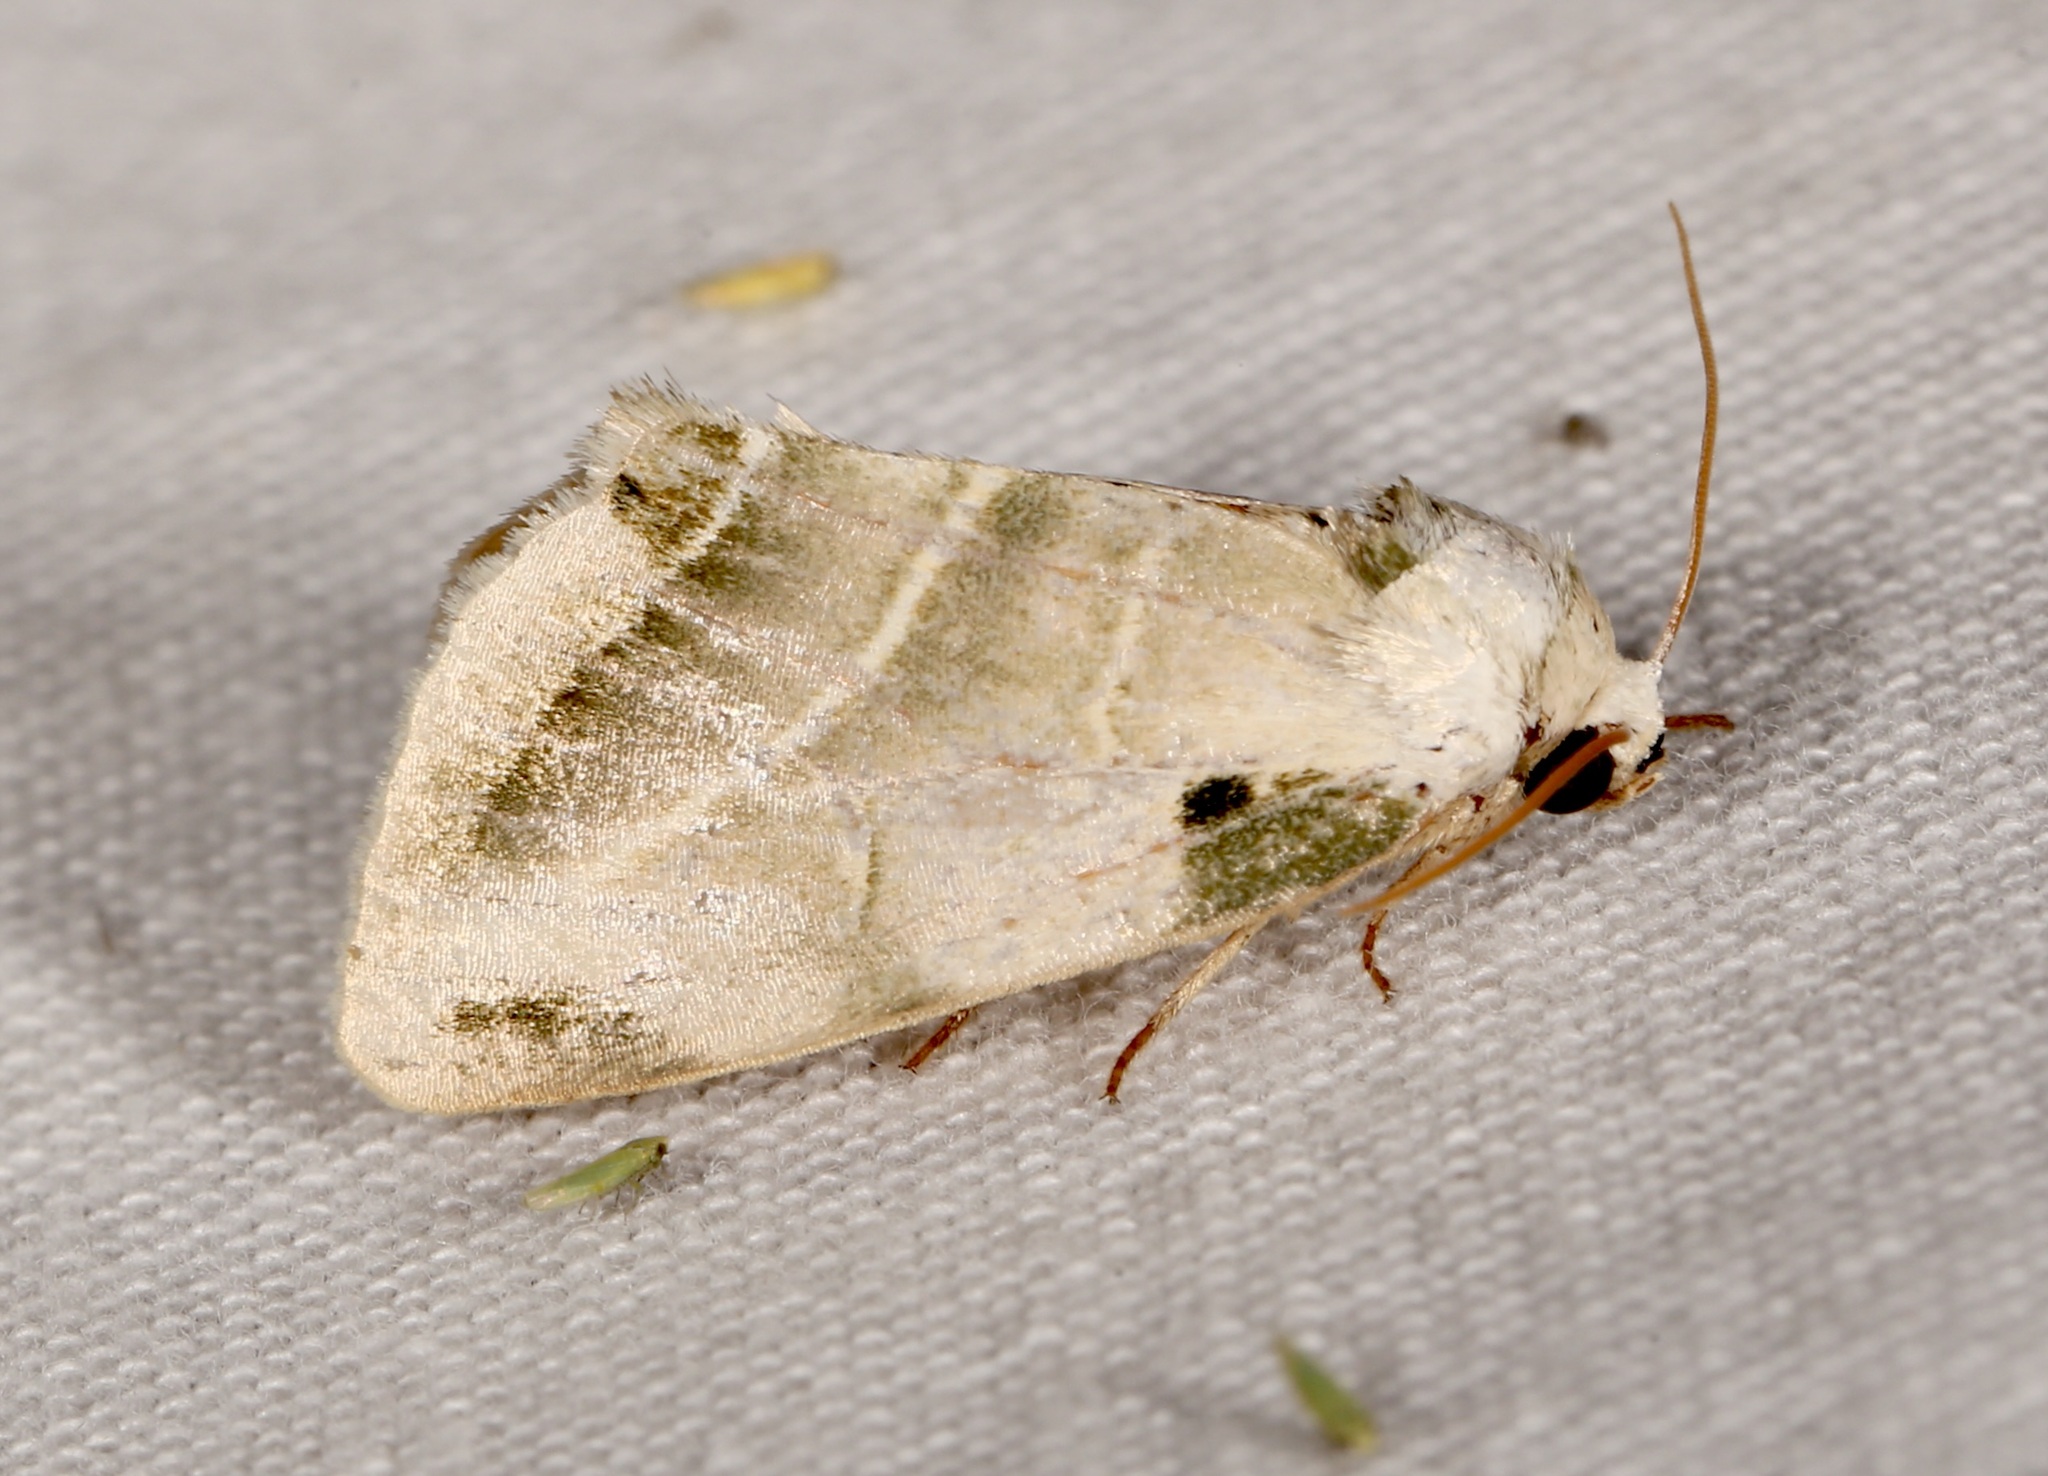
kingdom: Animalia
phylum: Arthropoda
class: Insecta
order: Lepidoptera
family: Noctuidae
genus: Heminocloa
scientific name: Heminocloa mirabilis
